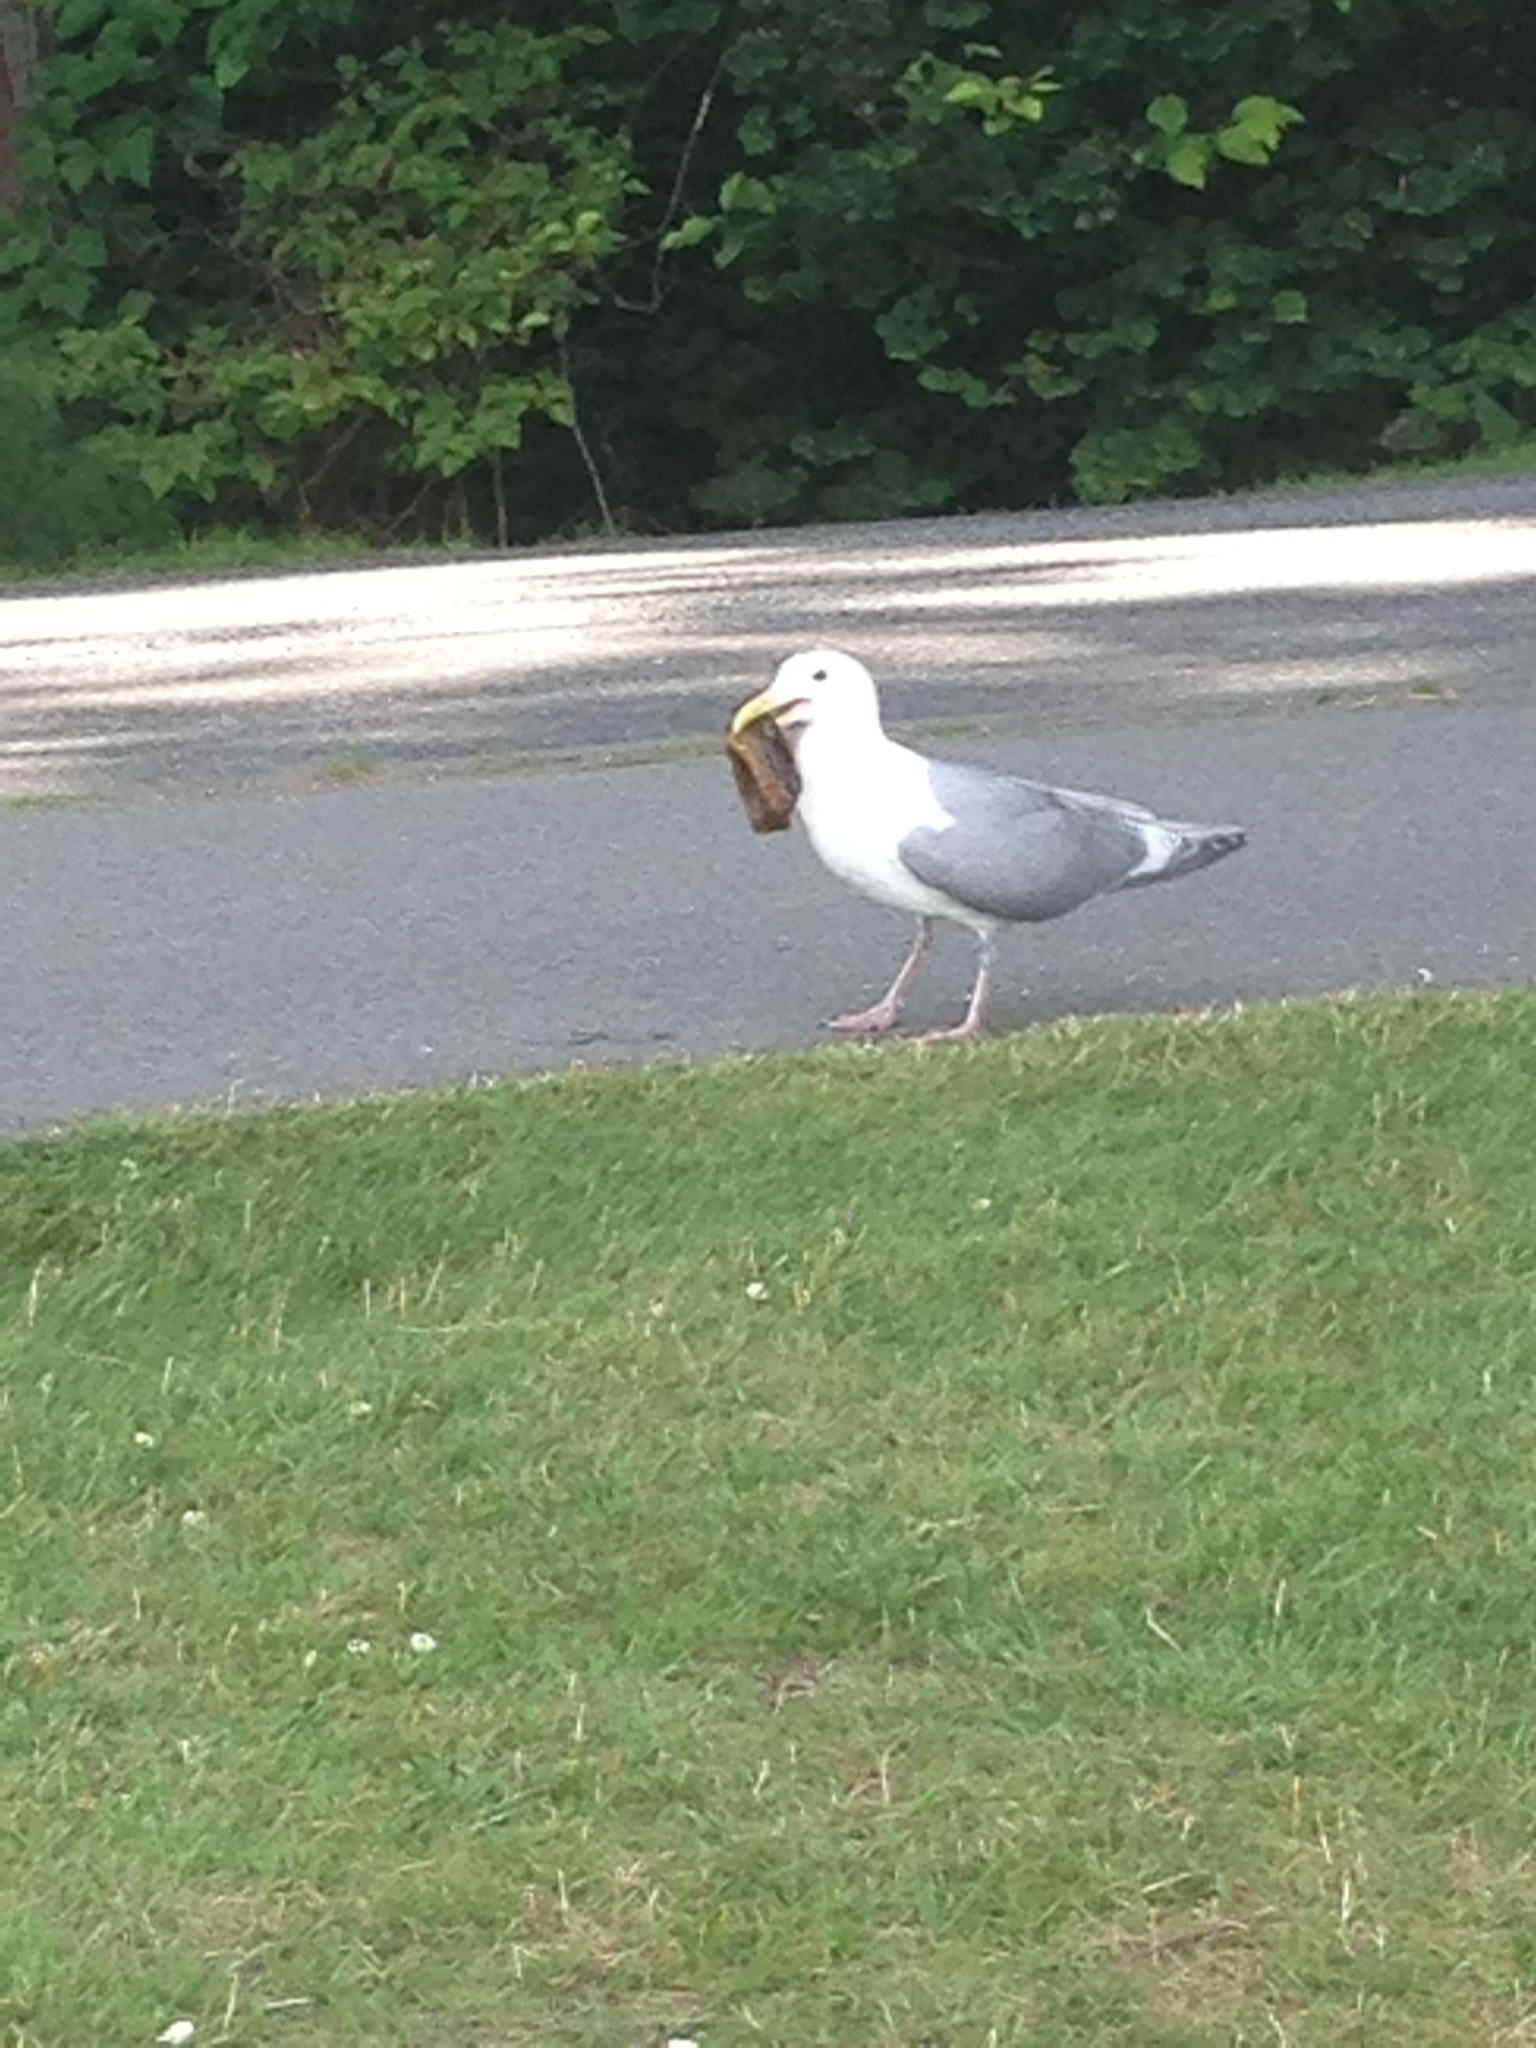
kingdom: Animalia
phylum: Chordata
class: Aves
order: Charadriiformes
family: Laridae
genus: Larus
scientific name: Larus glaucescens
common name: Glaucous-winged gull
